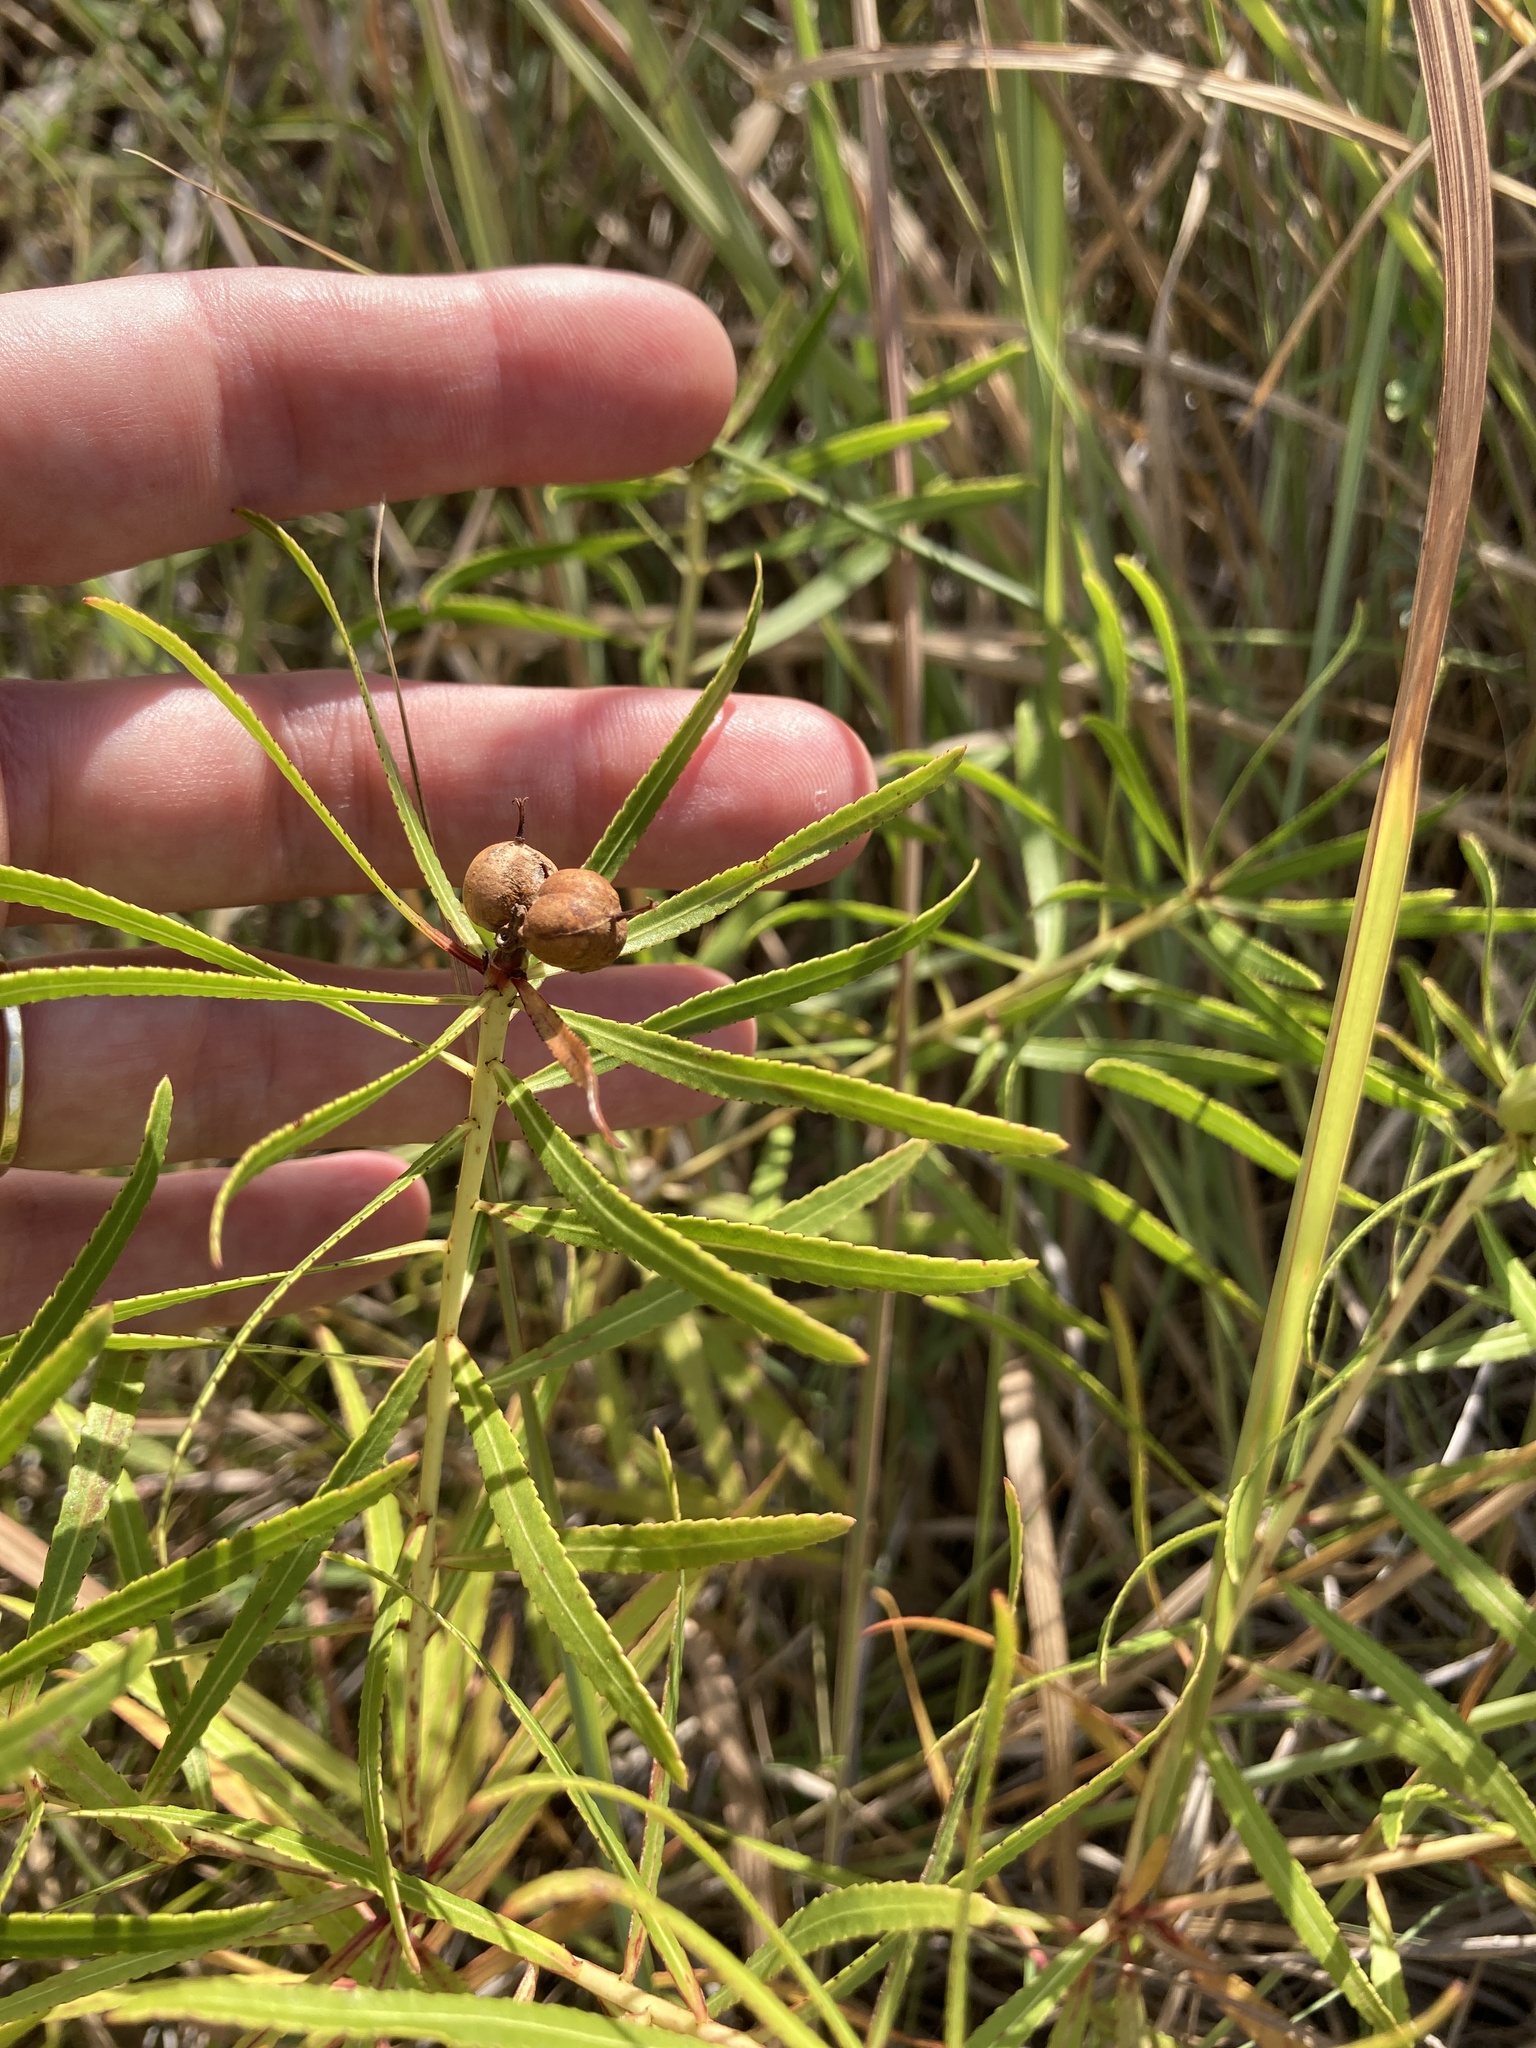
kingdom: Plantae
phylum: Tracheophyta
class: Magnoliopsida
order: Malpighiales
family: Euphorbiaceae
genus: Stillingia
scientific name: Stillingia texana
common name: Texas stillingia
